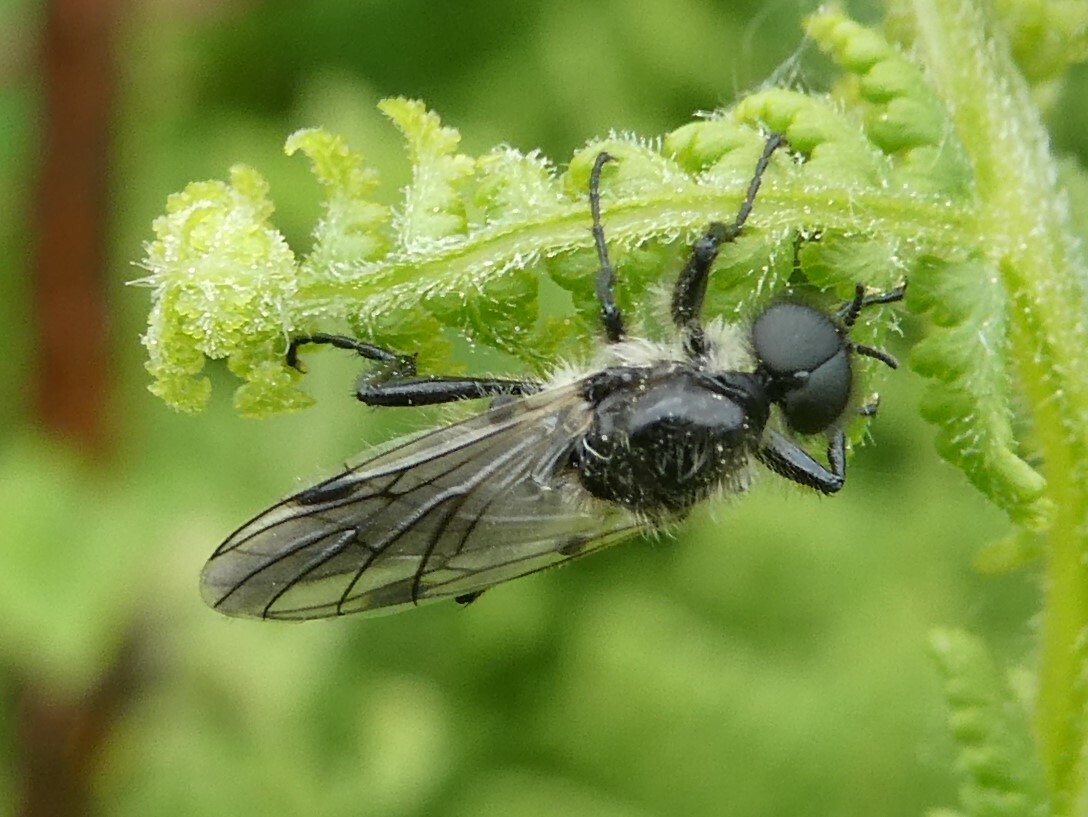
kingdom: Animalia
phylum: Arthropoda
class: Insecta
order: Diptera
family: Bibionidae
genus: Bibio
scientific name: Bibio albipennis
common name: White-winged march fly
